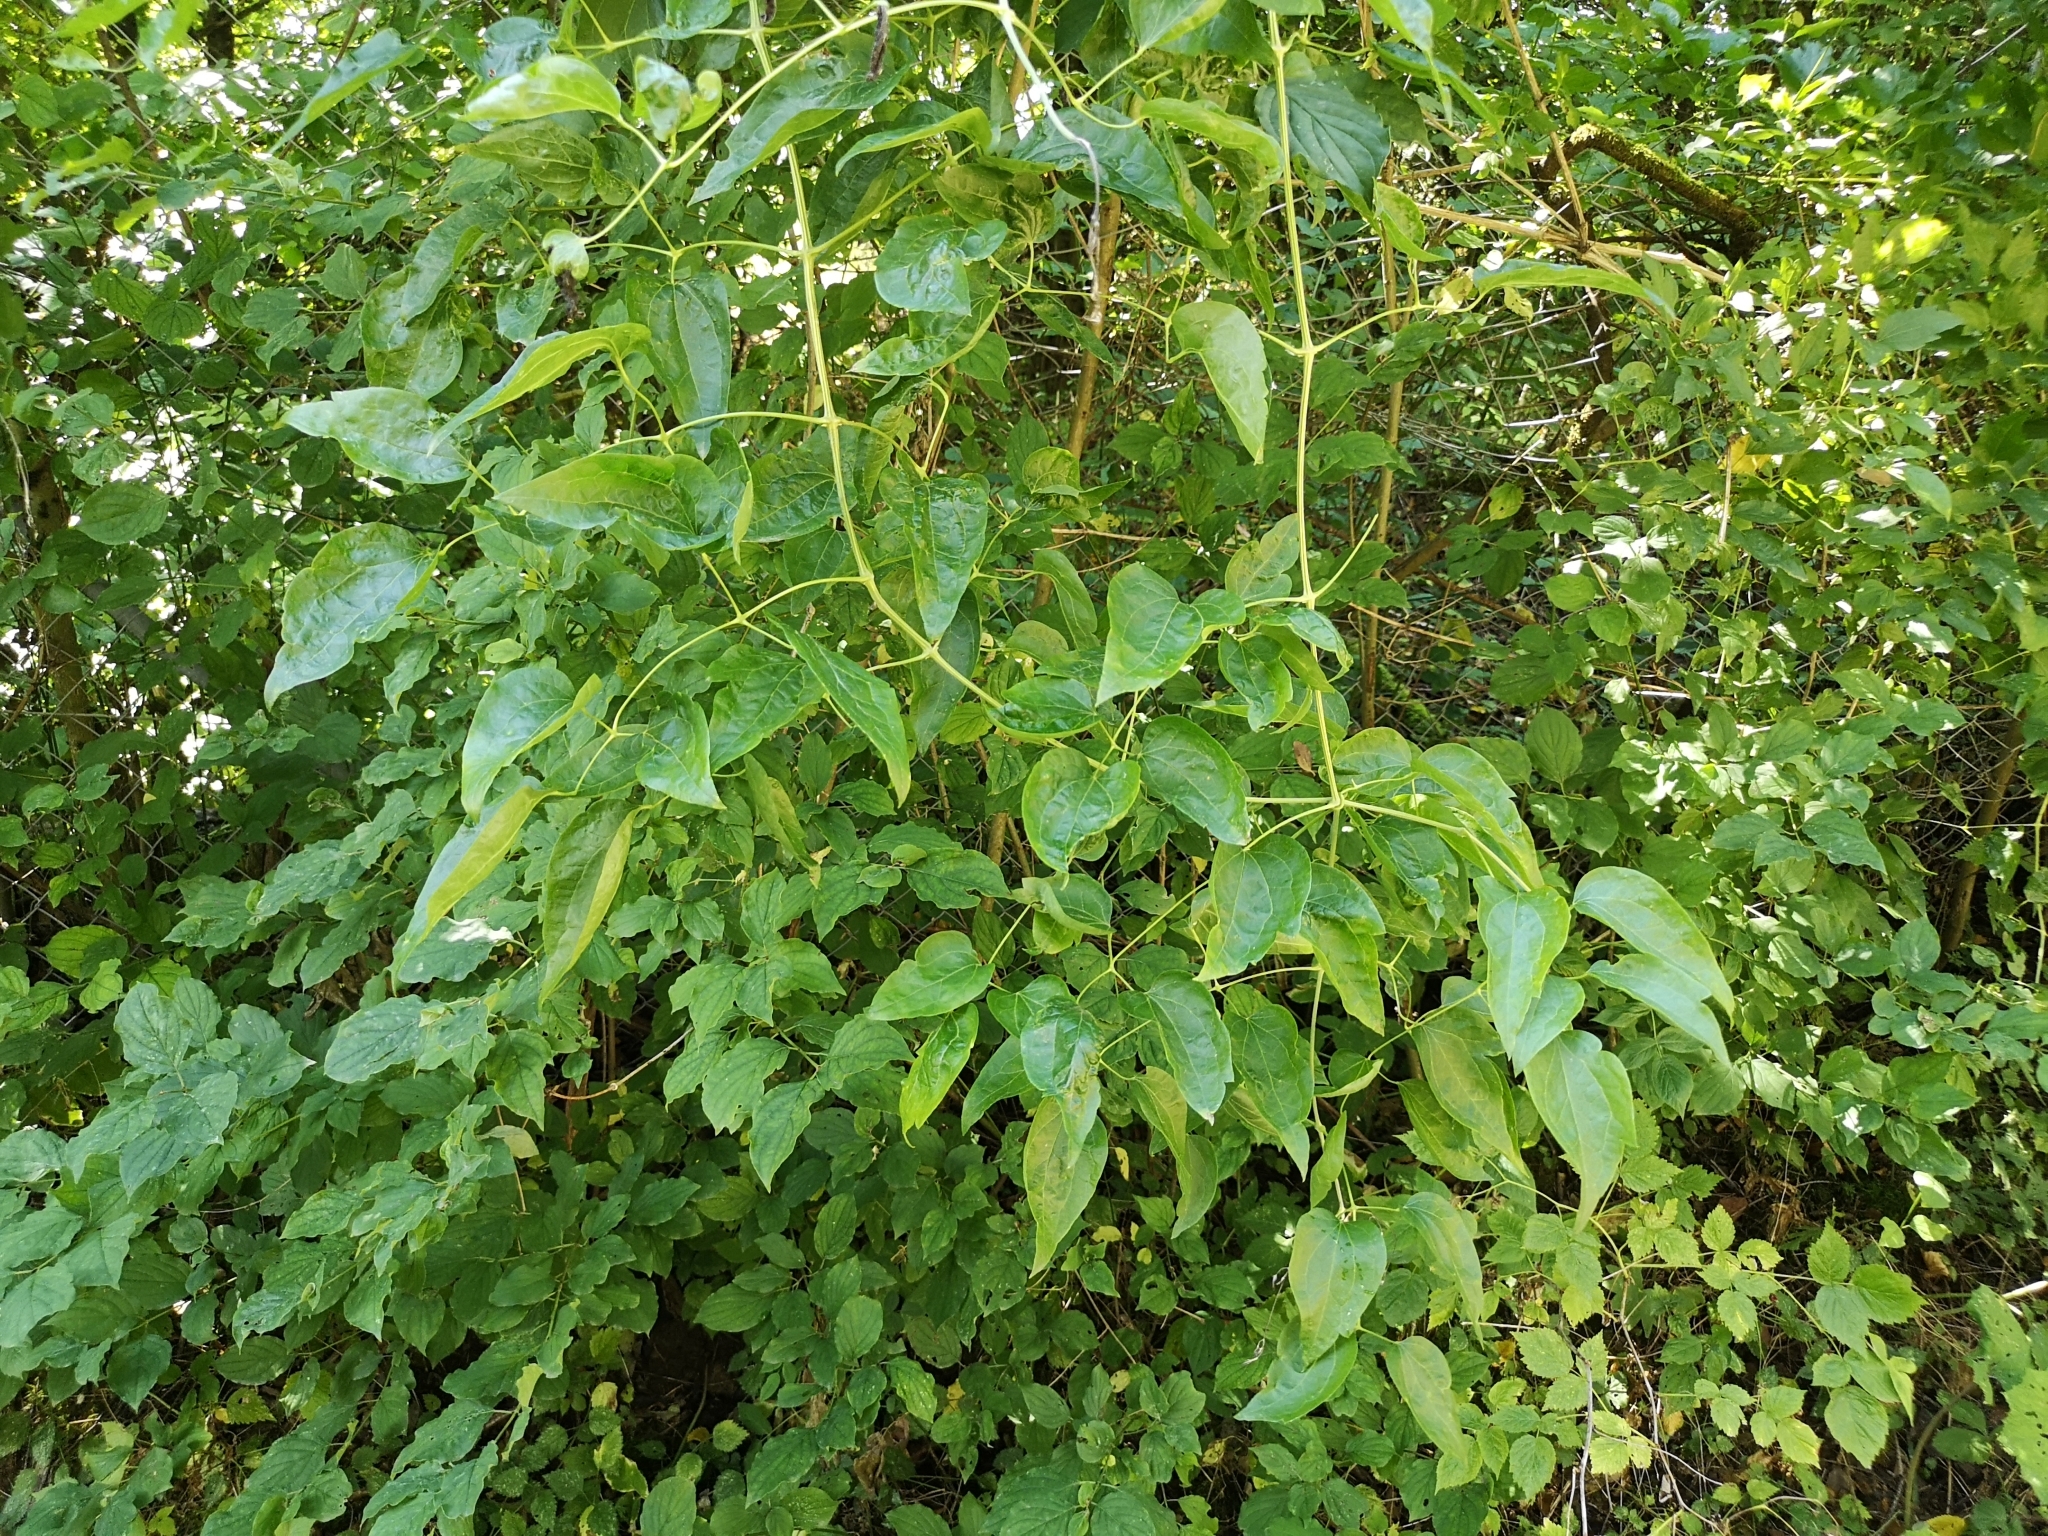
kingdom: Plantae
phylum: Tracheophyta
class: Magnoliopsida
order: Ranunculales
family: Ranunculaceae
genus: Clematis
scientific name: Clematis vitalba
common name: Evergreen clematis
